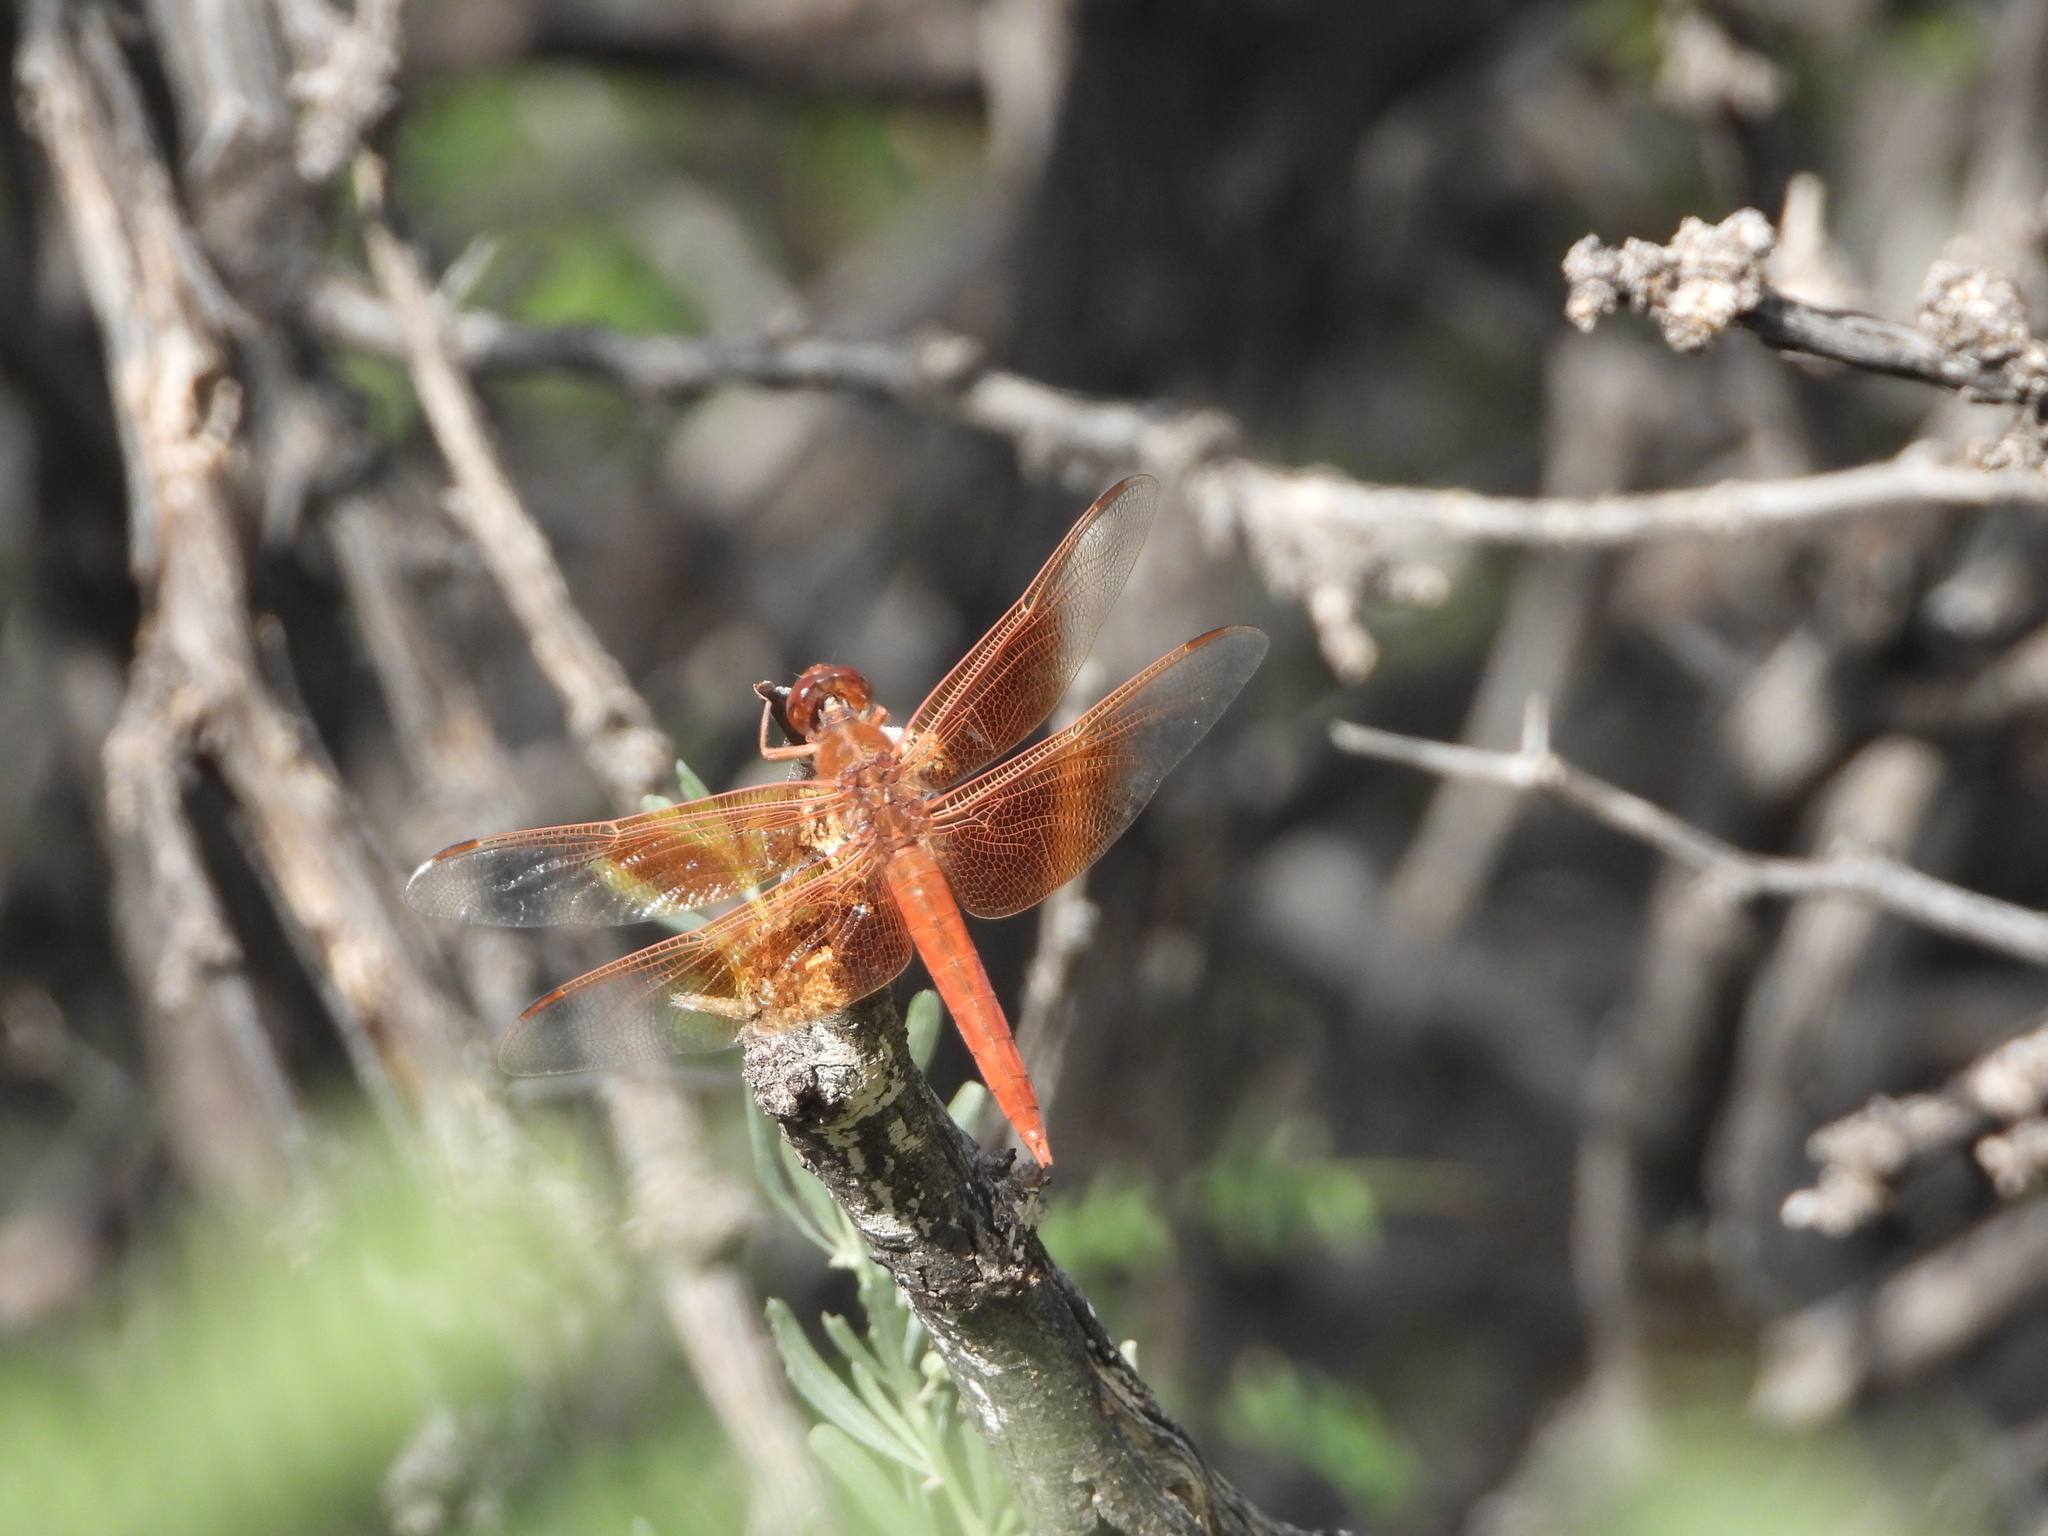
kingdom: Animalia
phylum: Arthropoda
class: Insecta
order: Odonata
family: Libellulidae
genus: Libellula
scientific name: Libellula saturata
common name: Flame skimmer
